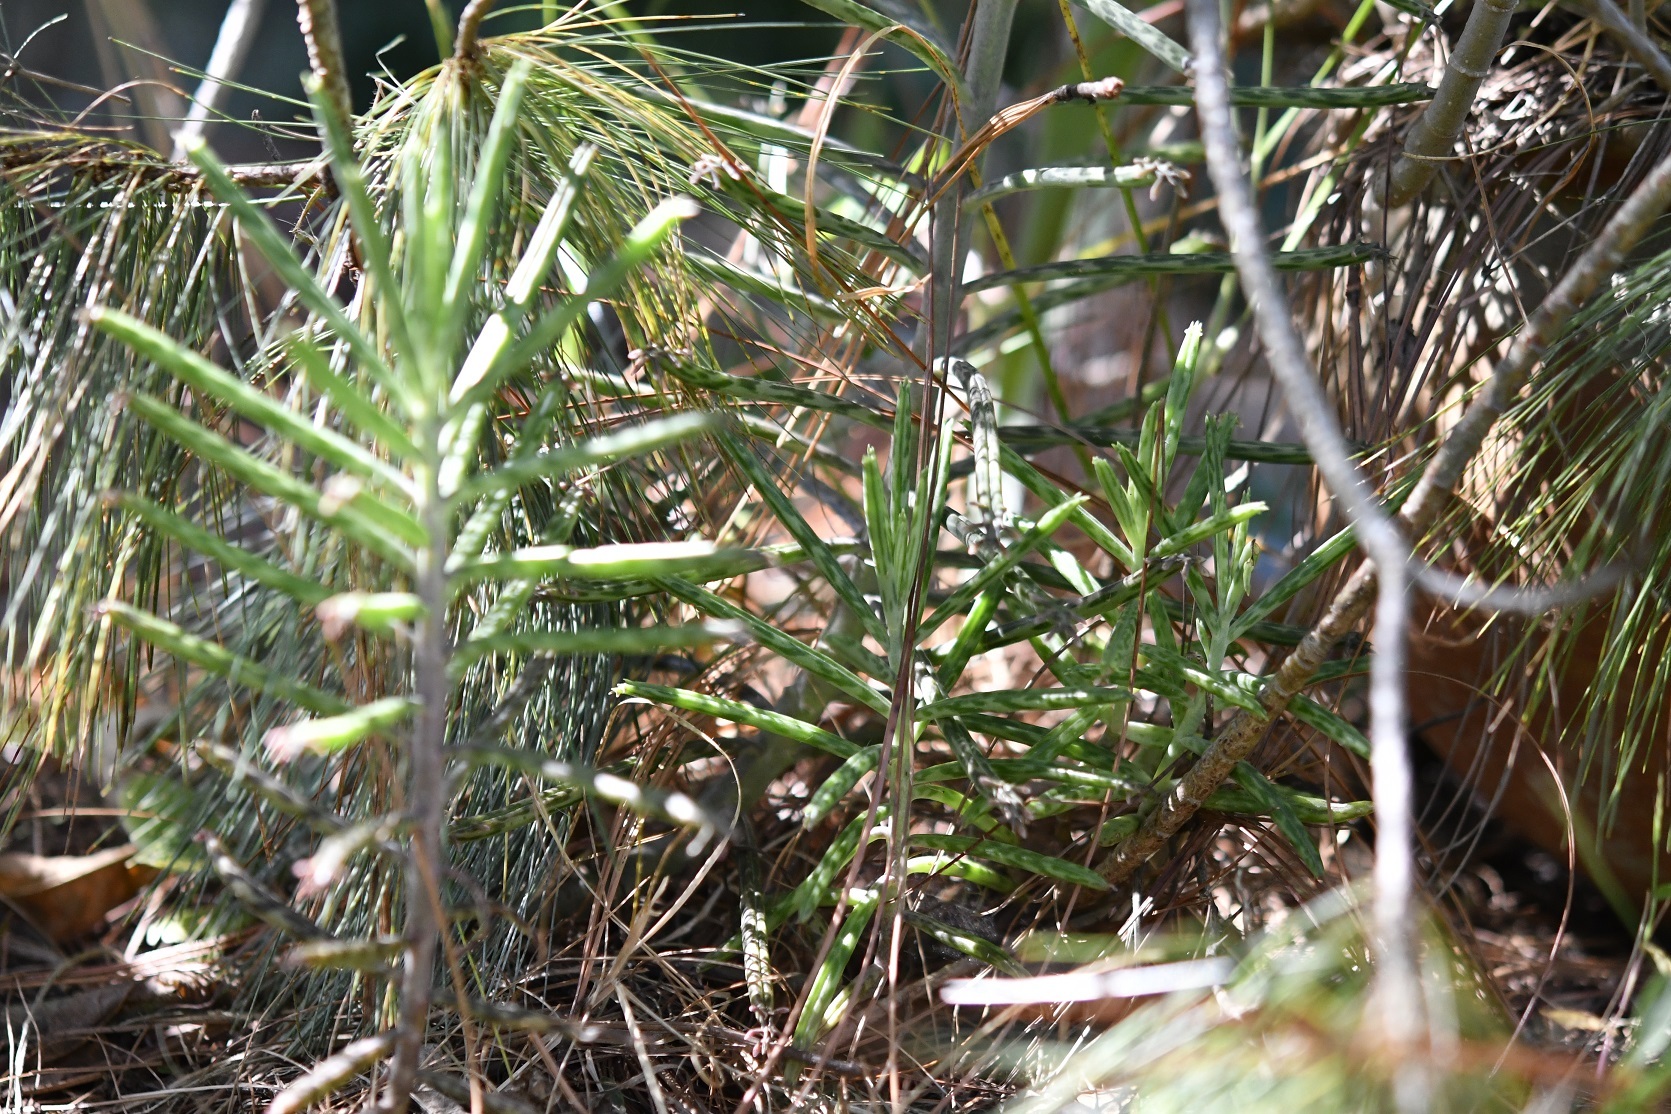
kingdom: Plantae
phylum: Tracheophyta
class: Magnoliopsida
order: Saxifragales
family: Crassulaceae
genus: Kalanchoe
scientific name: Kalanchoe delagoensis
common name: Chandelier plant
